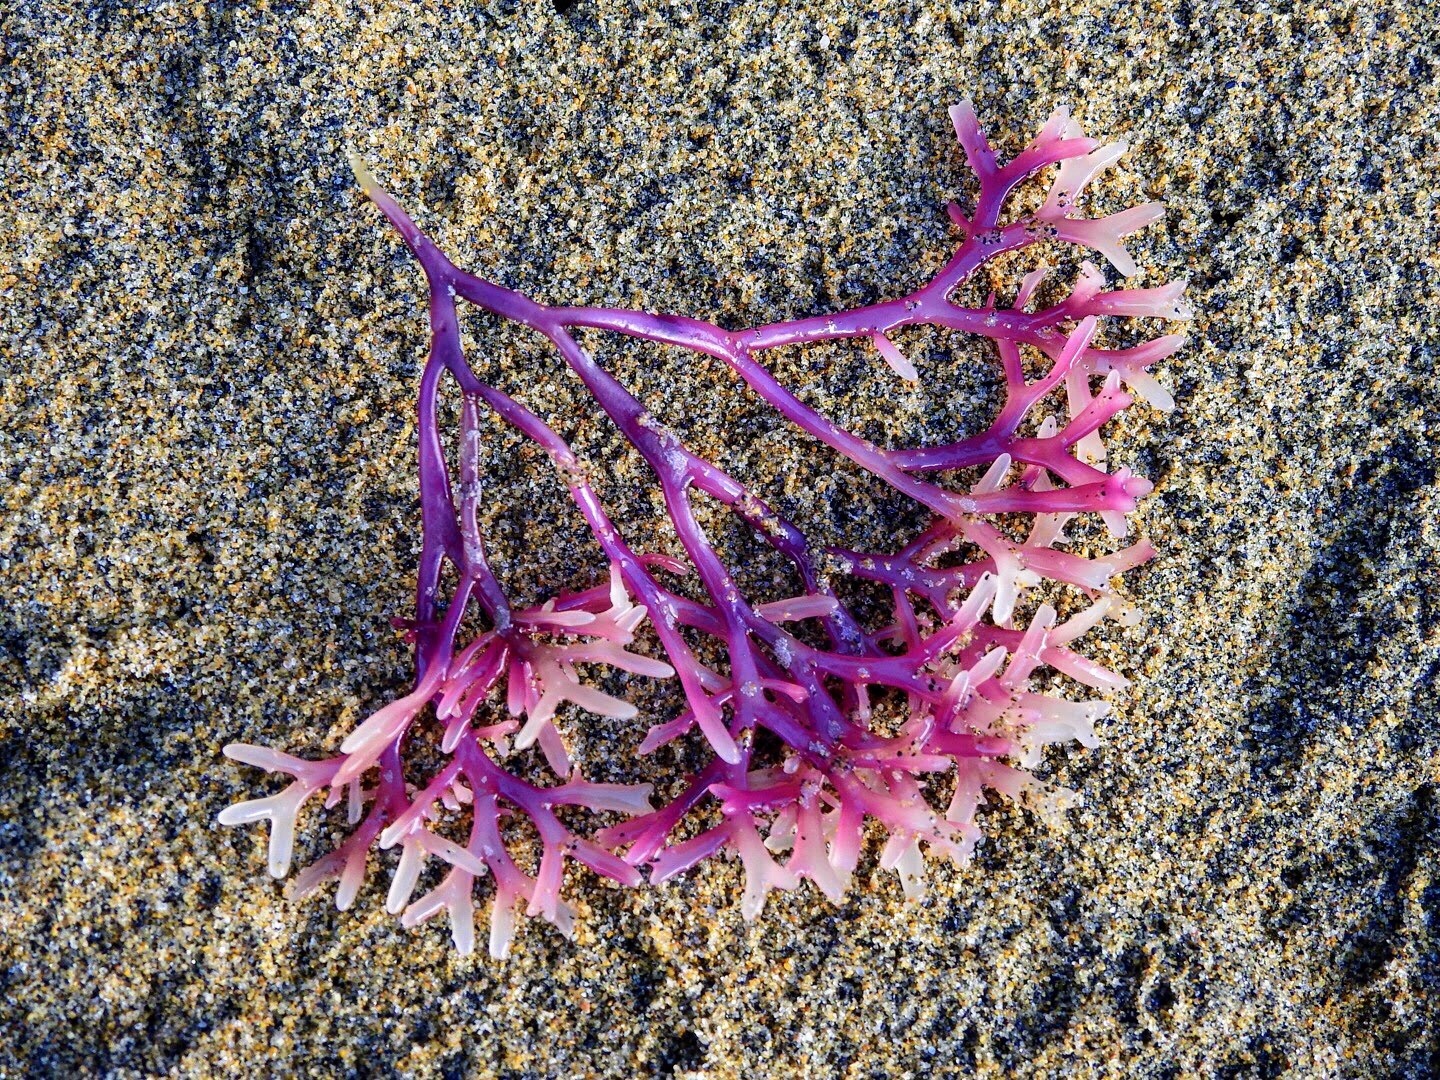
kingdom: Plantae
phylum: Rhodophyta
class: Florideophyceae
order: Gigartinales
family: Gigartinaceae
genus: Gigartina
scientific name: Gigartina clavifera
